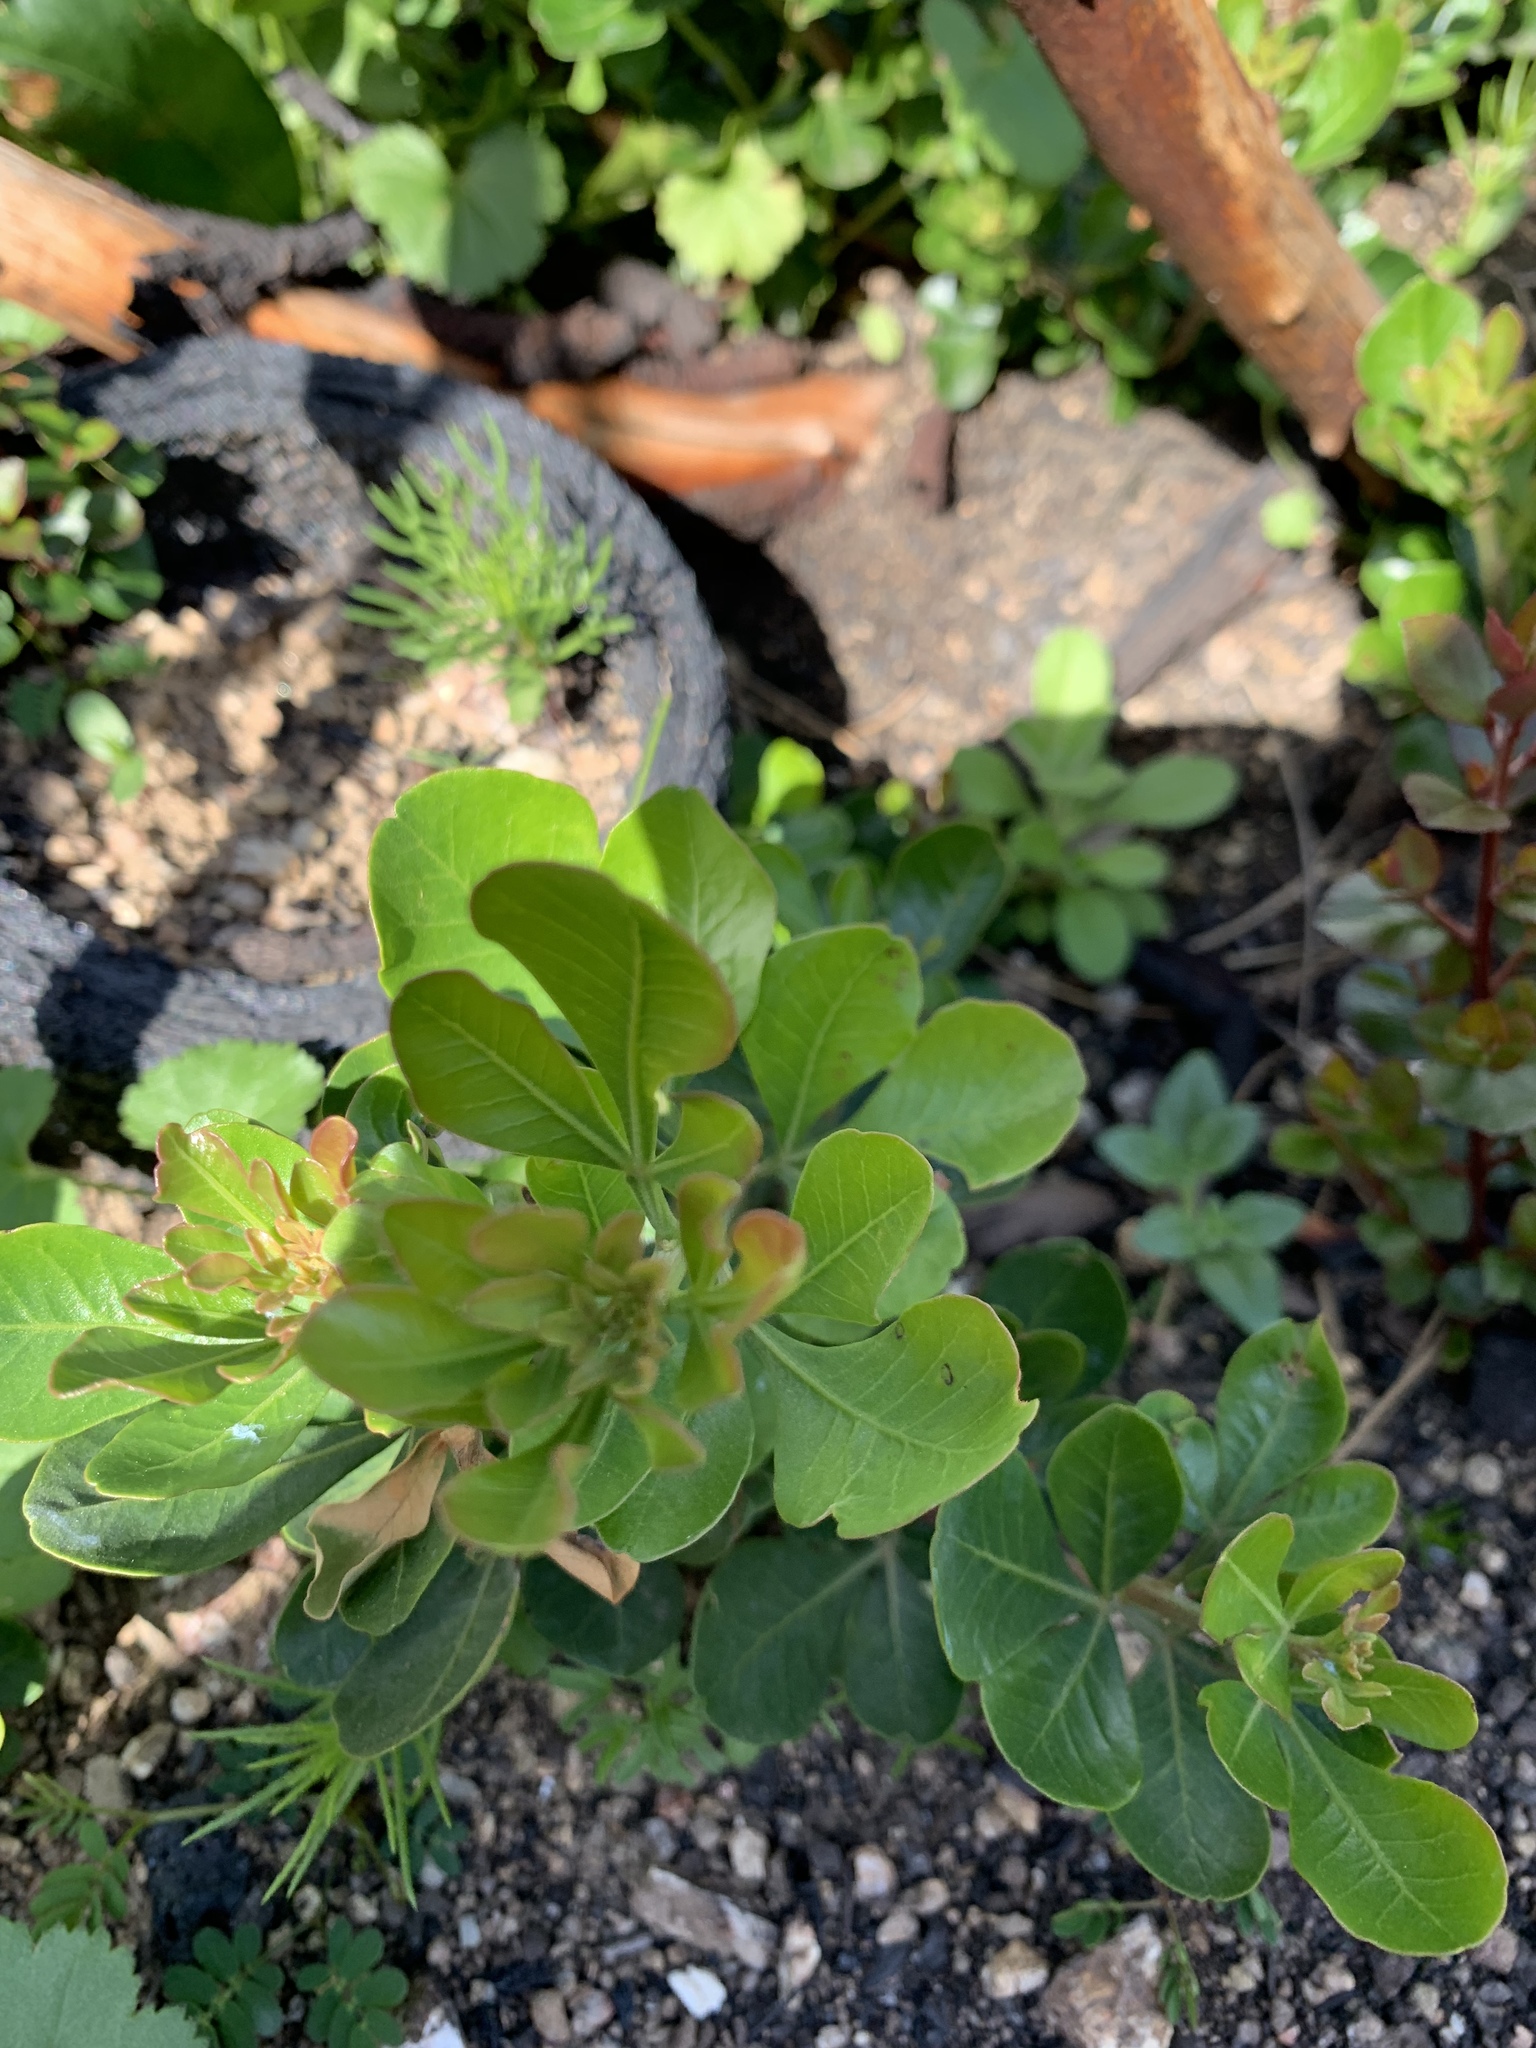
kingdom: Plantae
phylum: Tracheophyta
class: Magnoliopsida
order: Sapindales
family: Anacardiaceae
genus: Searsia
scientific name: Searsia lucida
